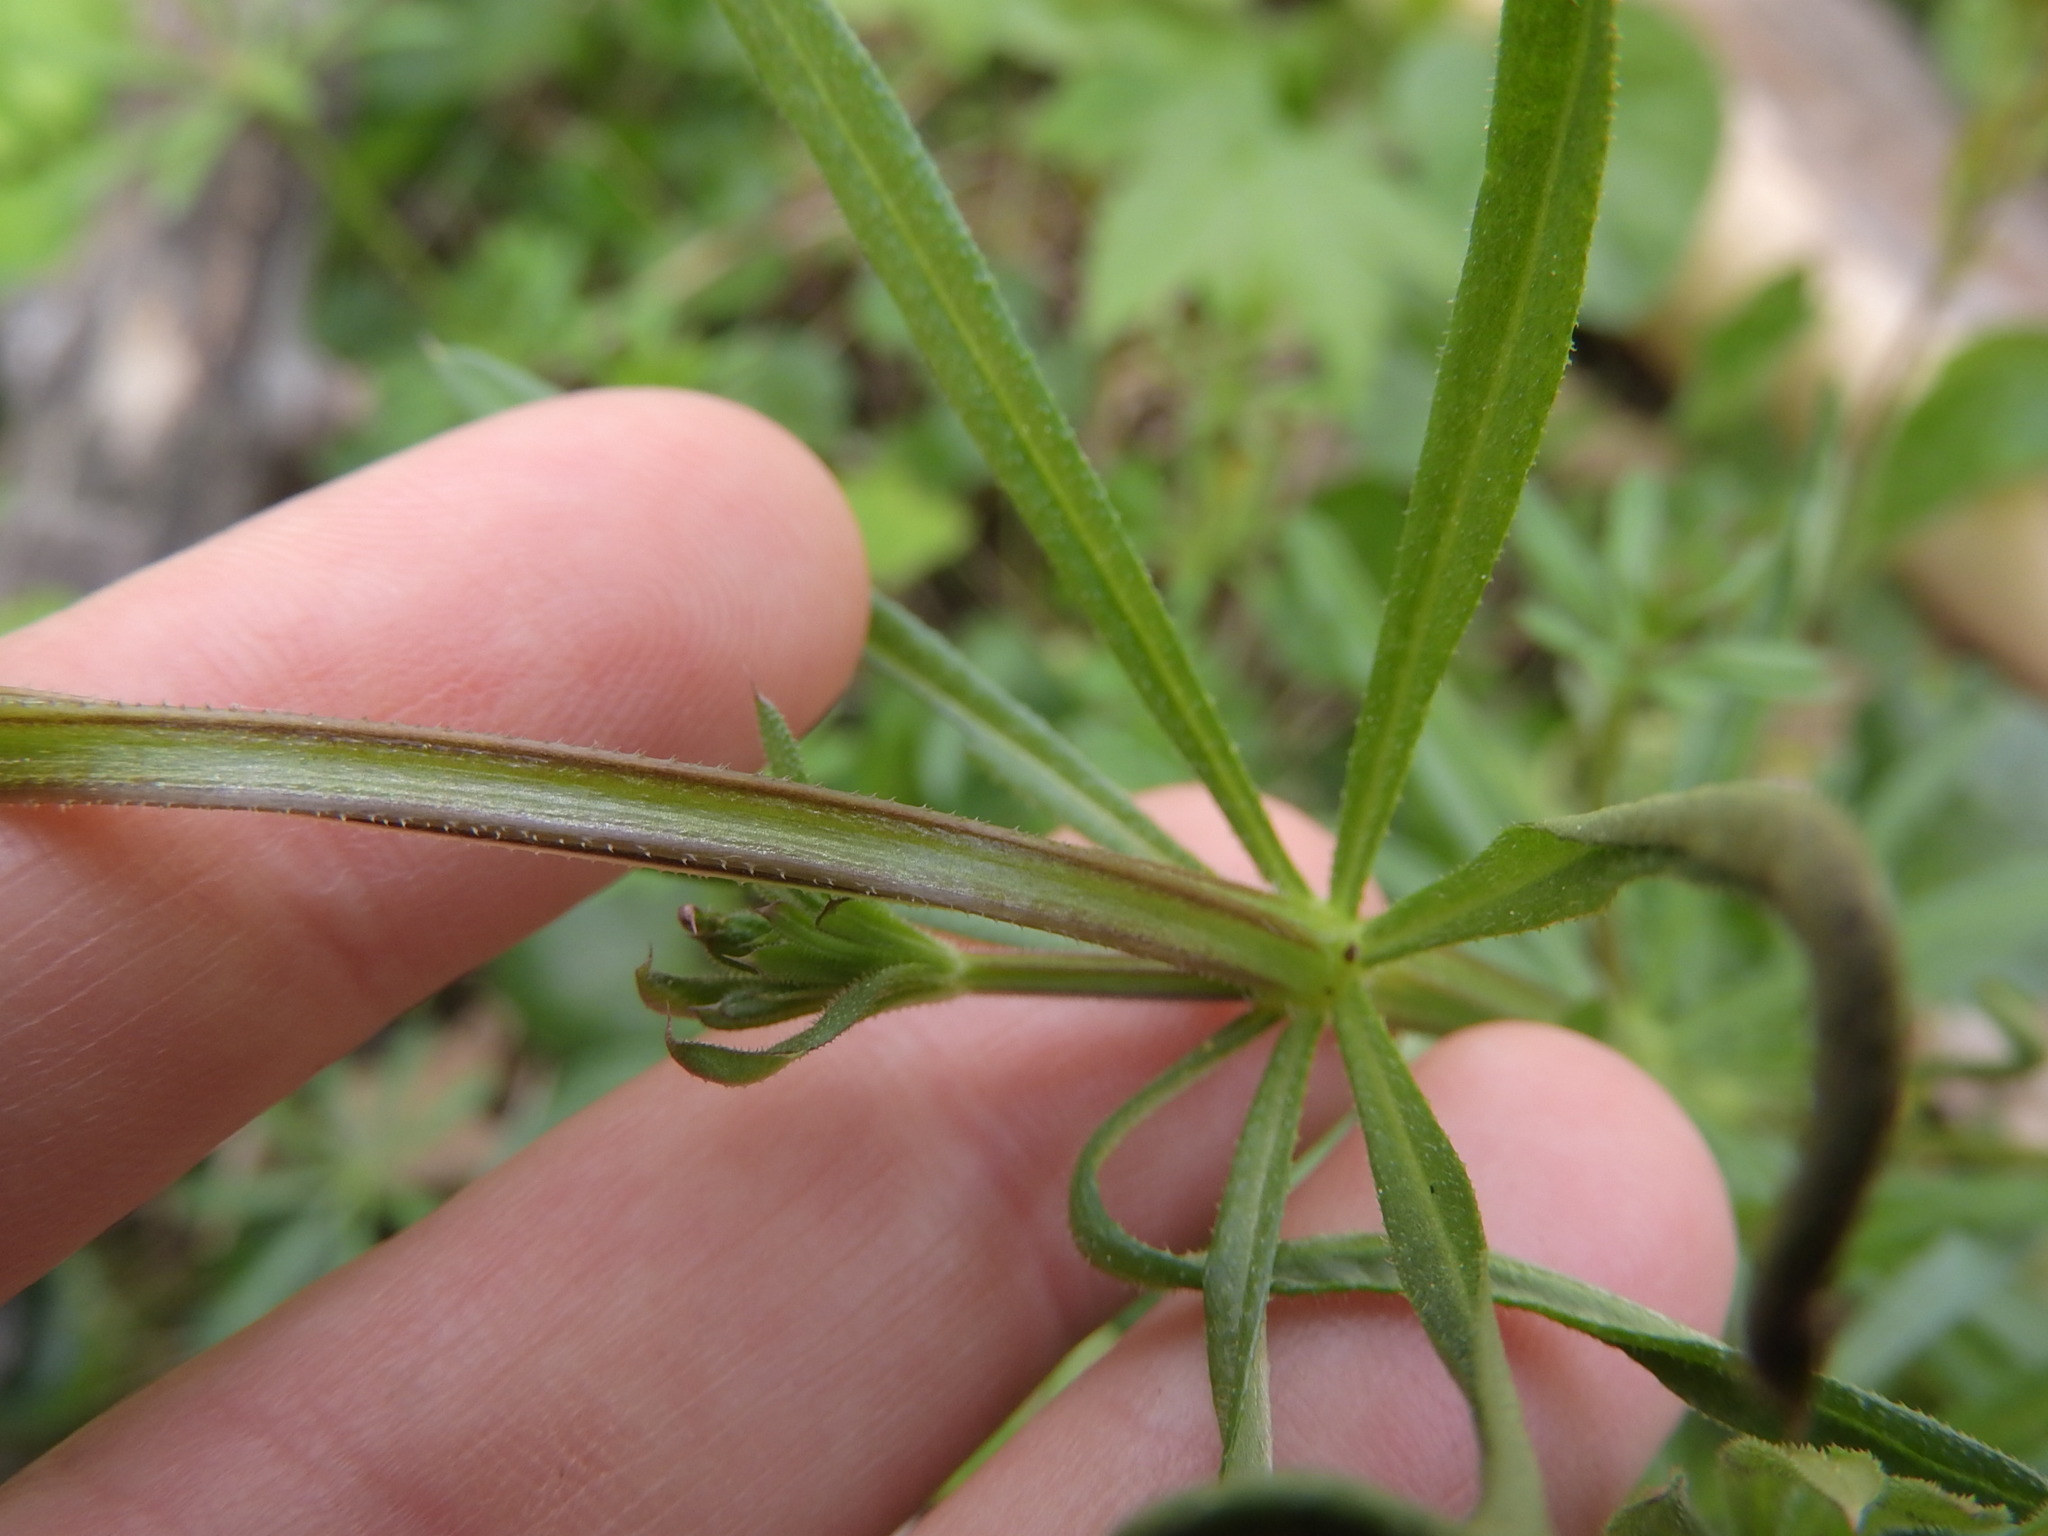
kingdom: Plantae
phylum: Tracheophyta
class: Magnoliopsida
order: Gentianales
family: Rubiaceae
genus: Galium
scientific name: Galium aparine
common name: Cleavers
